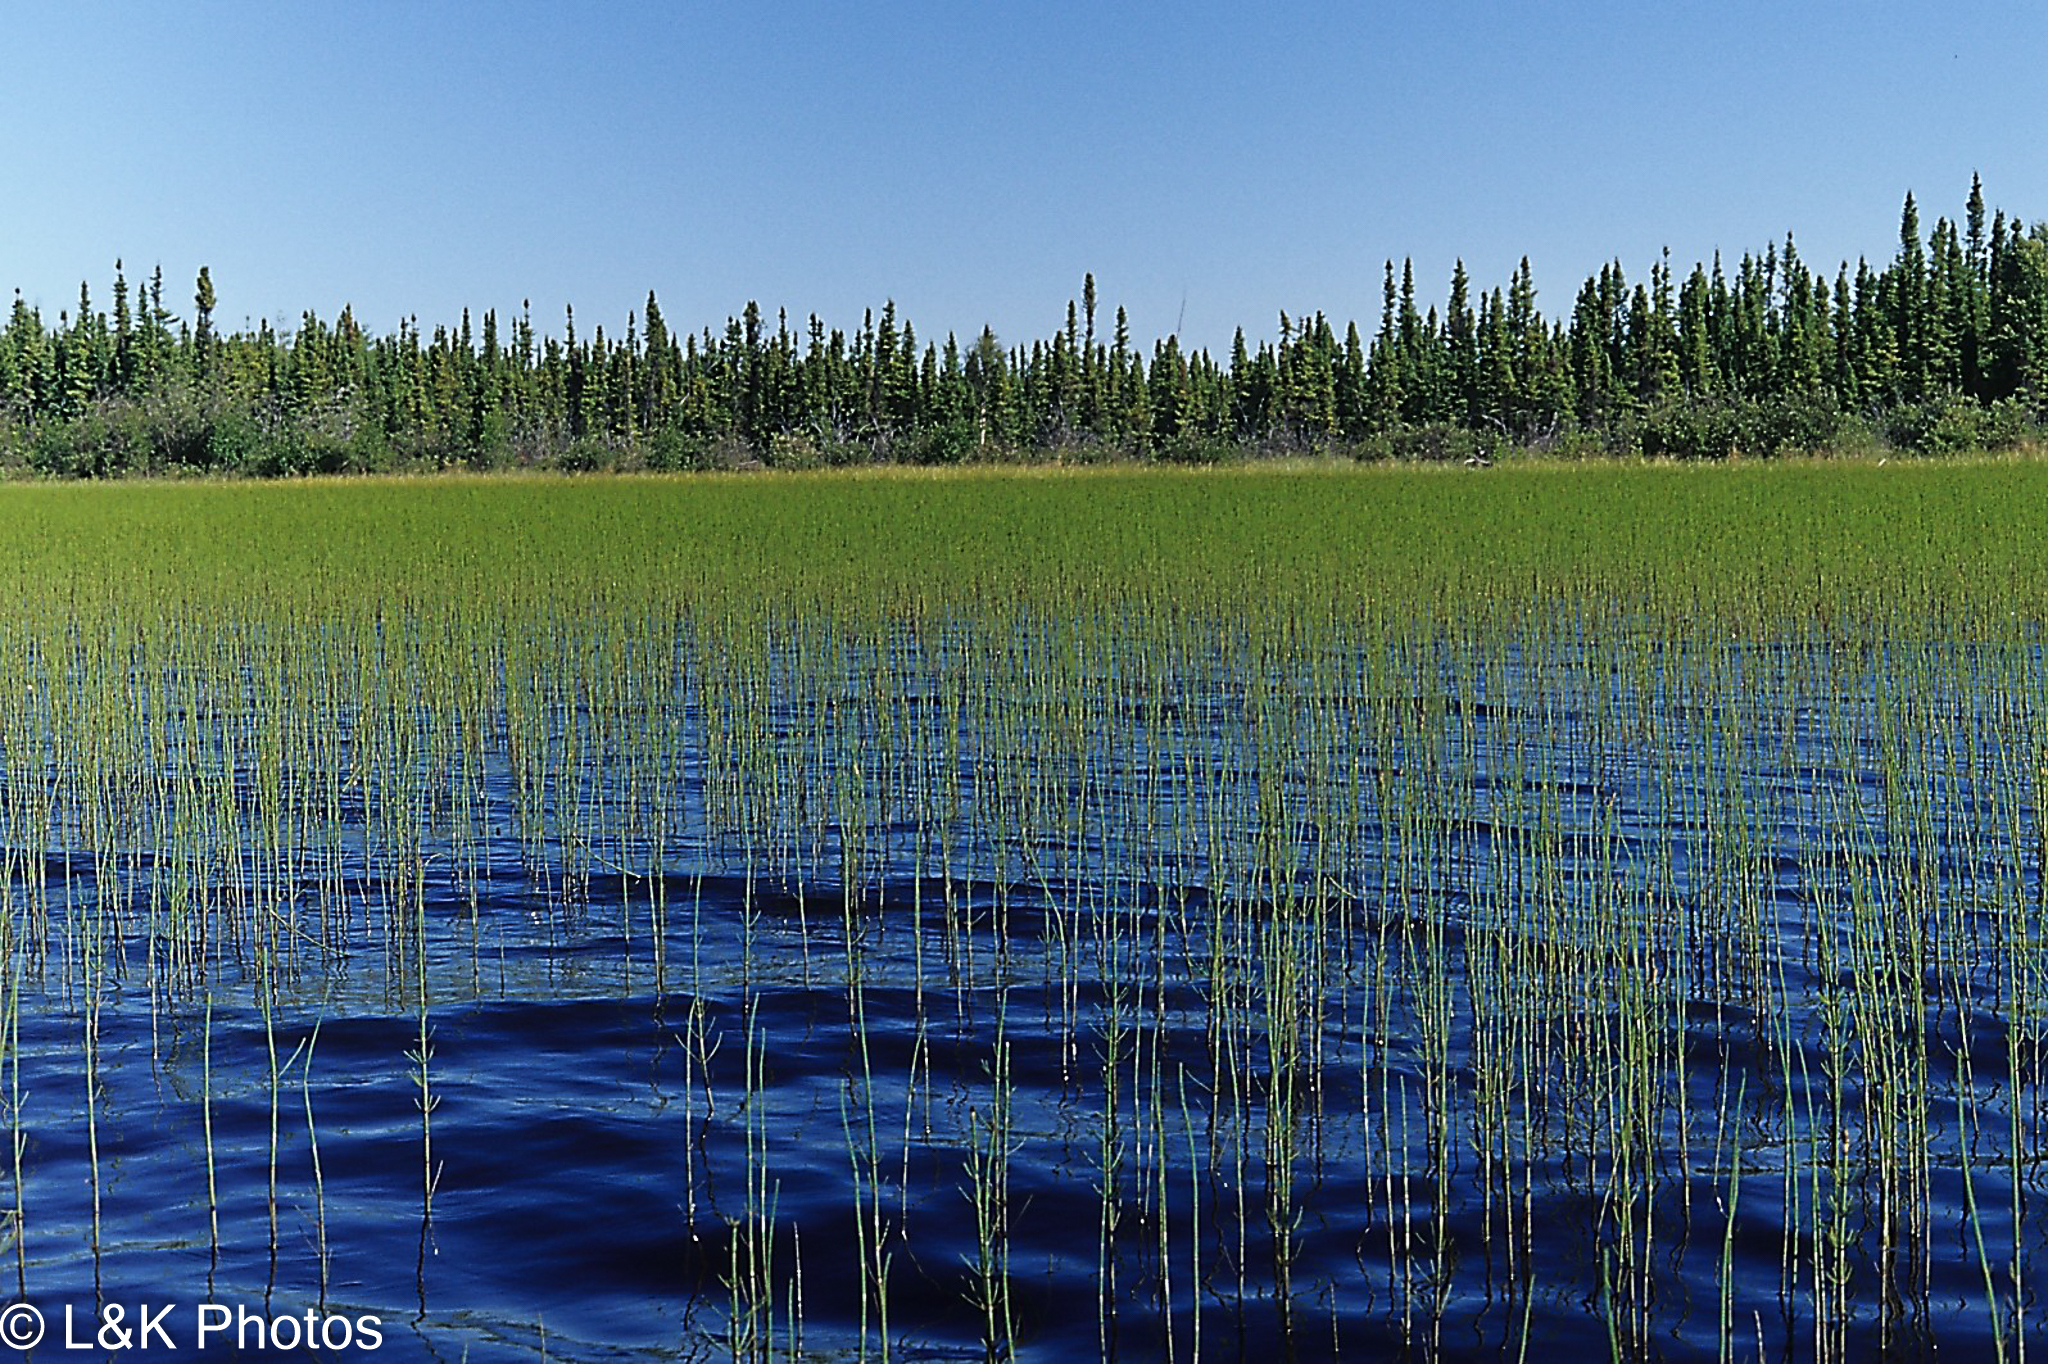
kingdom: Plantae
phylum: Tracheophyta
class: Polypodiopsida
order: Equisetales
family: Equisetaceae
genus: Equisetum
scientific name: Equisetum fluviatile
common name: Water horsetail
